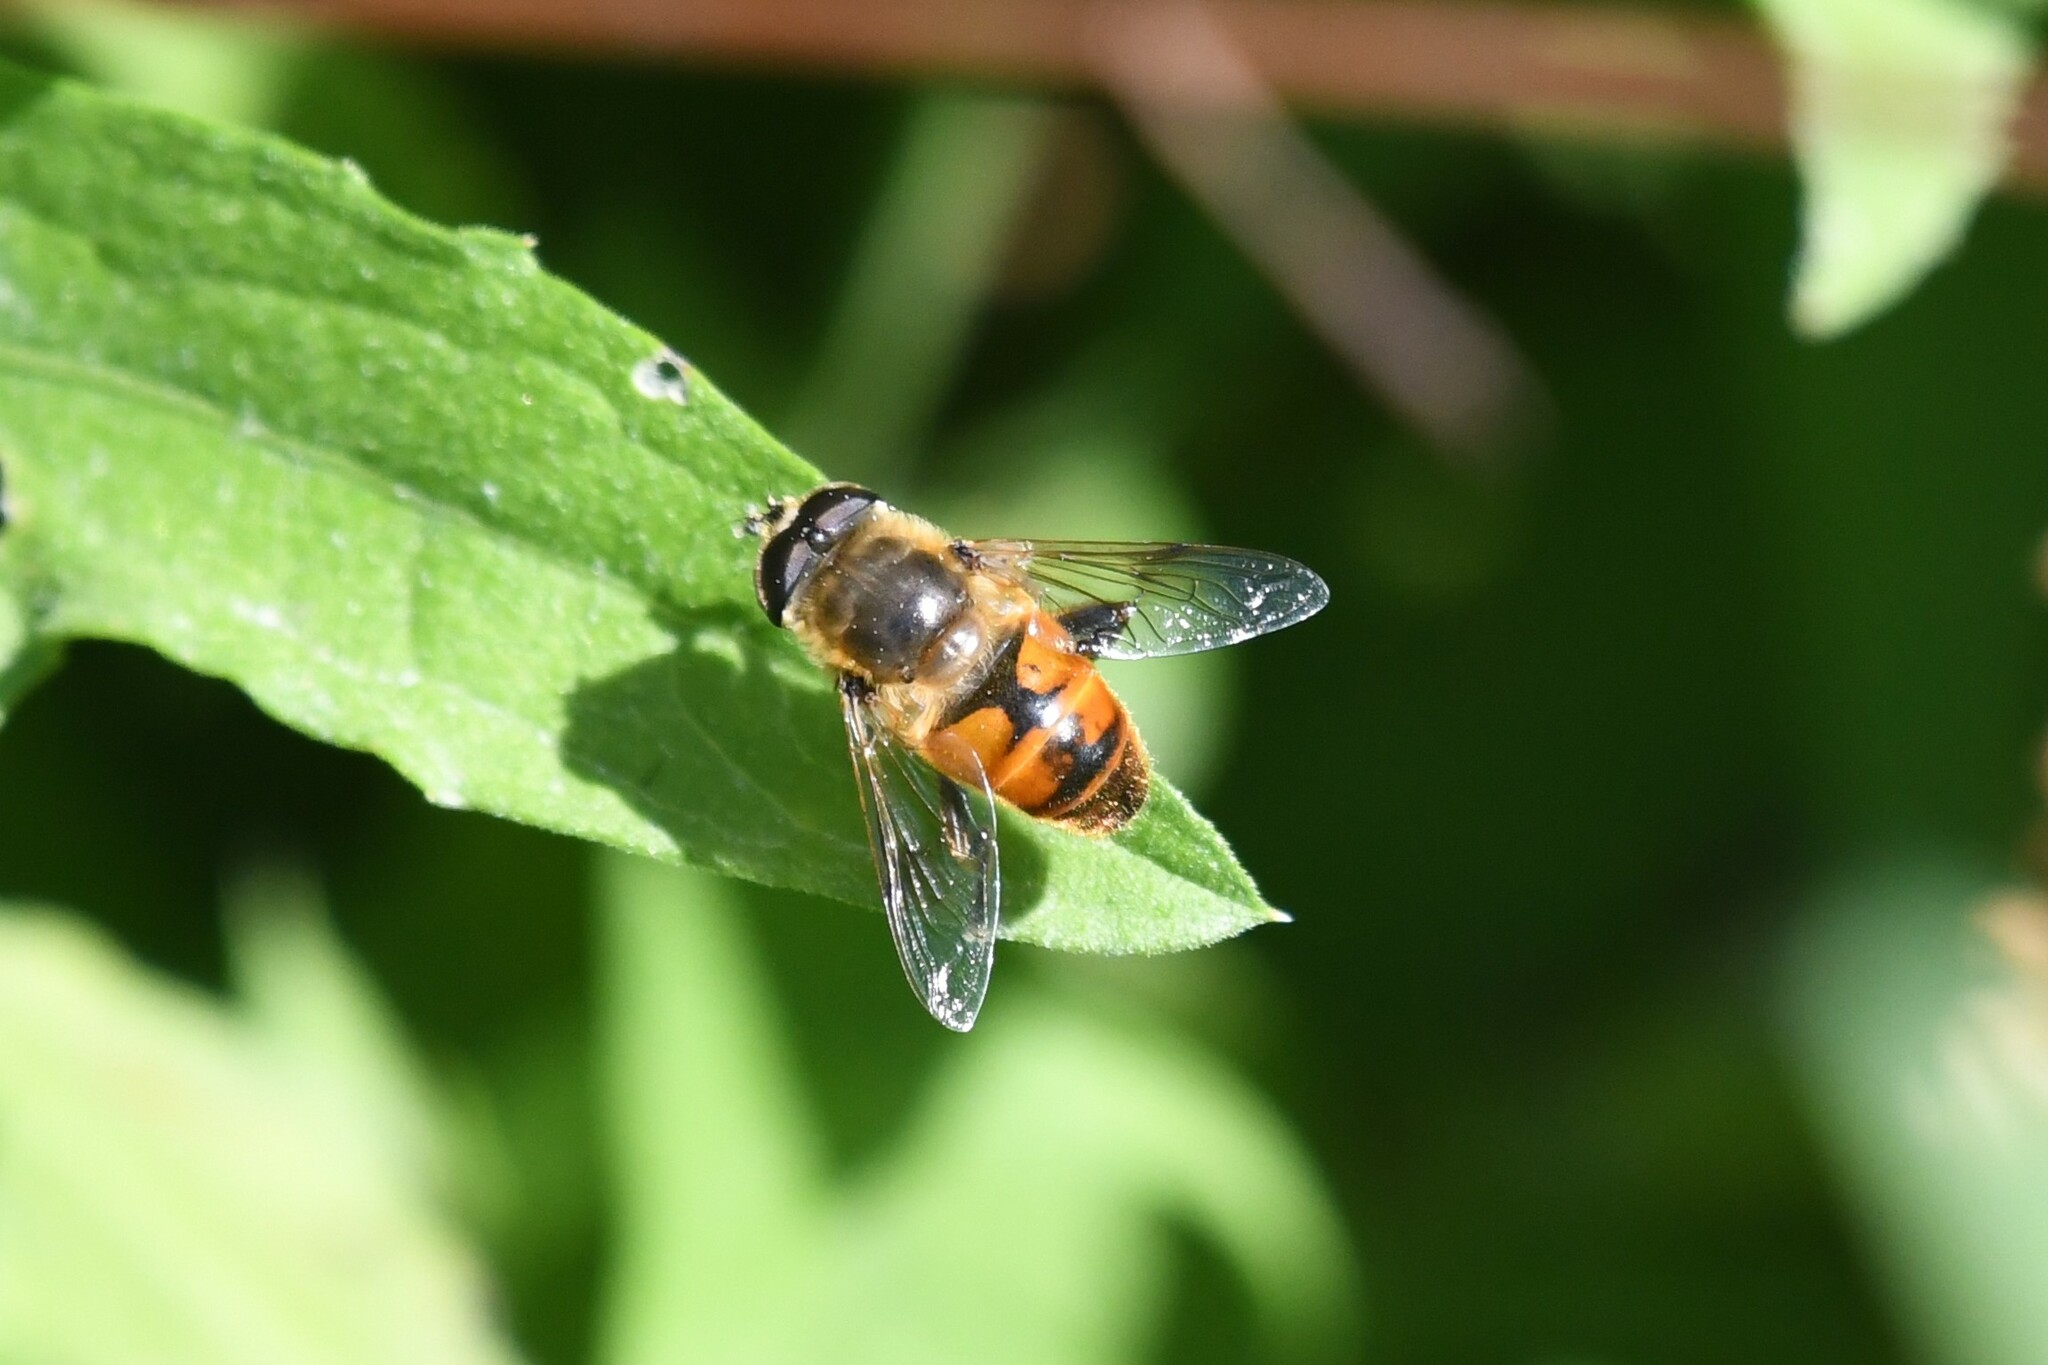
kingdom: Animalia
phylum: Arthropoda
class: Insecta
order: Diptera
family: Syrphidae
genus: Eristalis
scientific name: Eristalis tenax
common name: Drone fly
